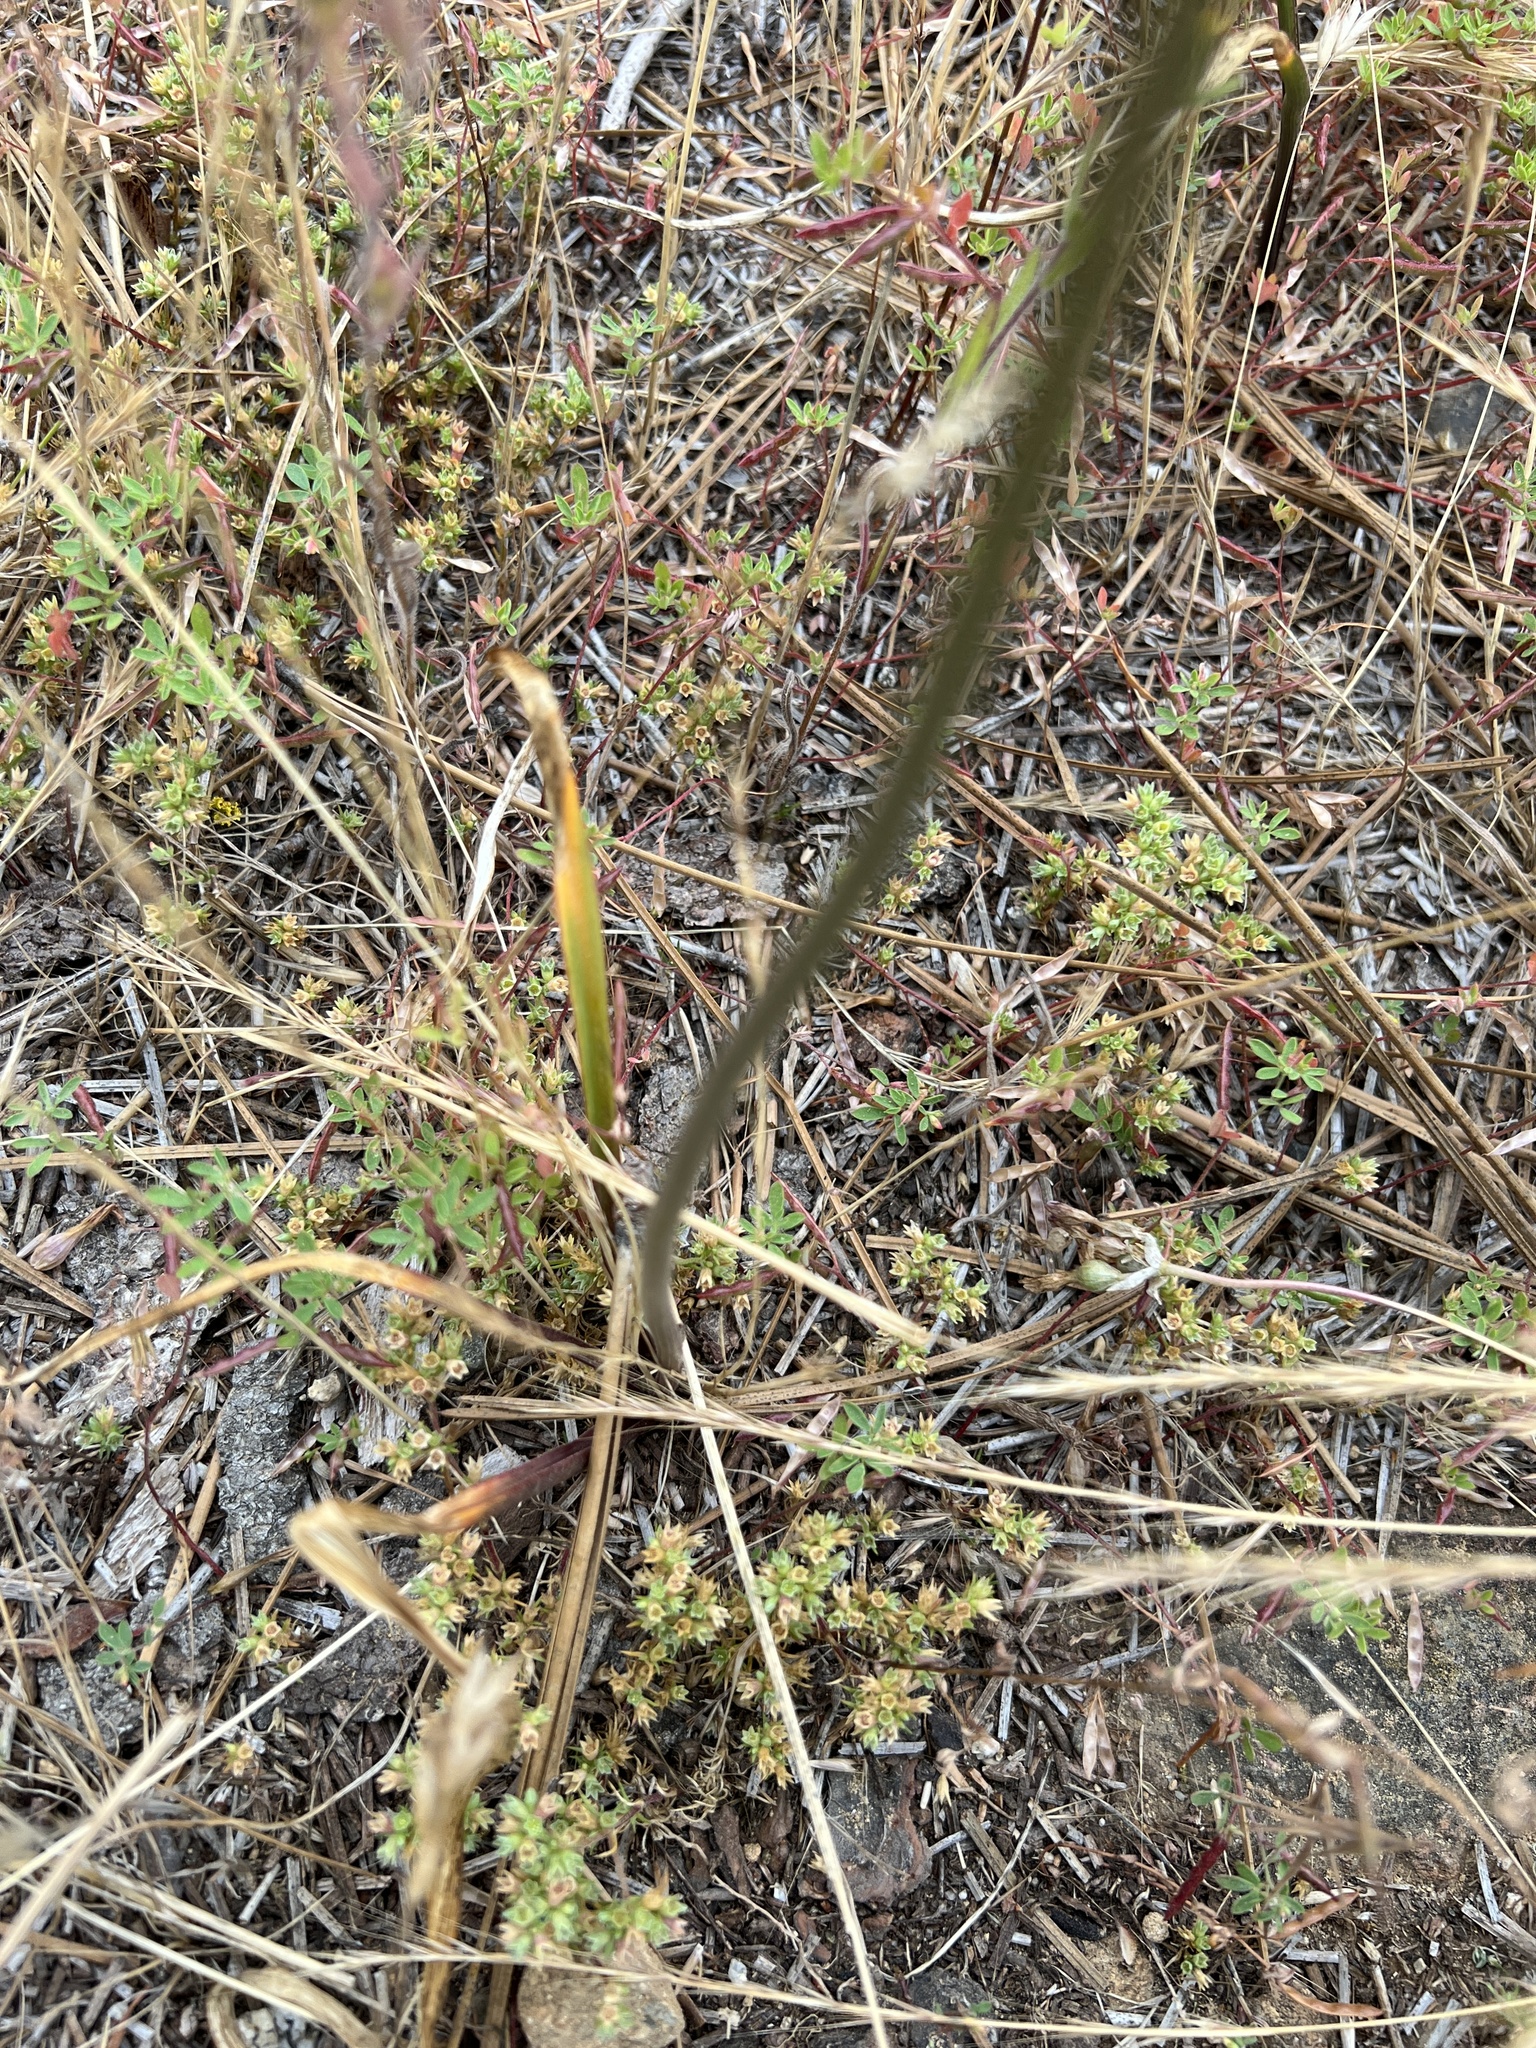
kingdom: Plantae
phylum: Tracheophyta
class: Liliopsida
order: Asparagales
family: Asparagaceae
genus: Dichelostemma
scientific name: Dichelostemma congestum
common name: Fork-tooth ookow
